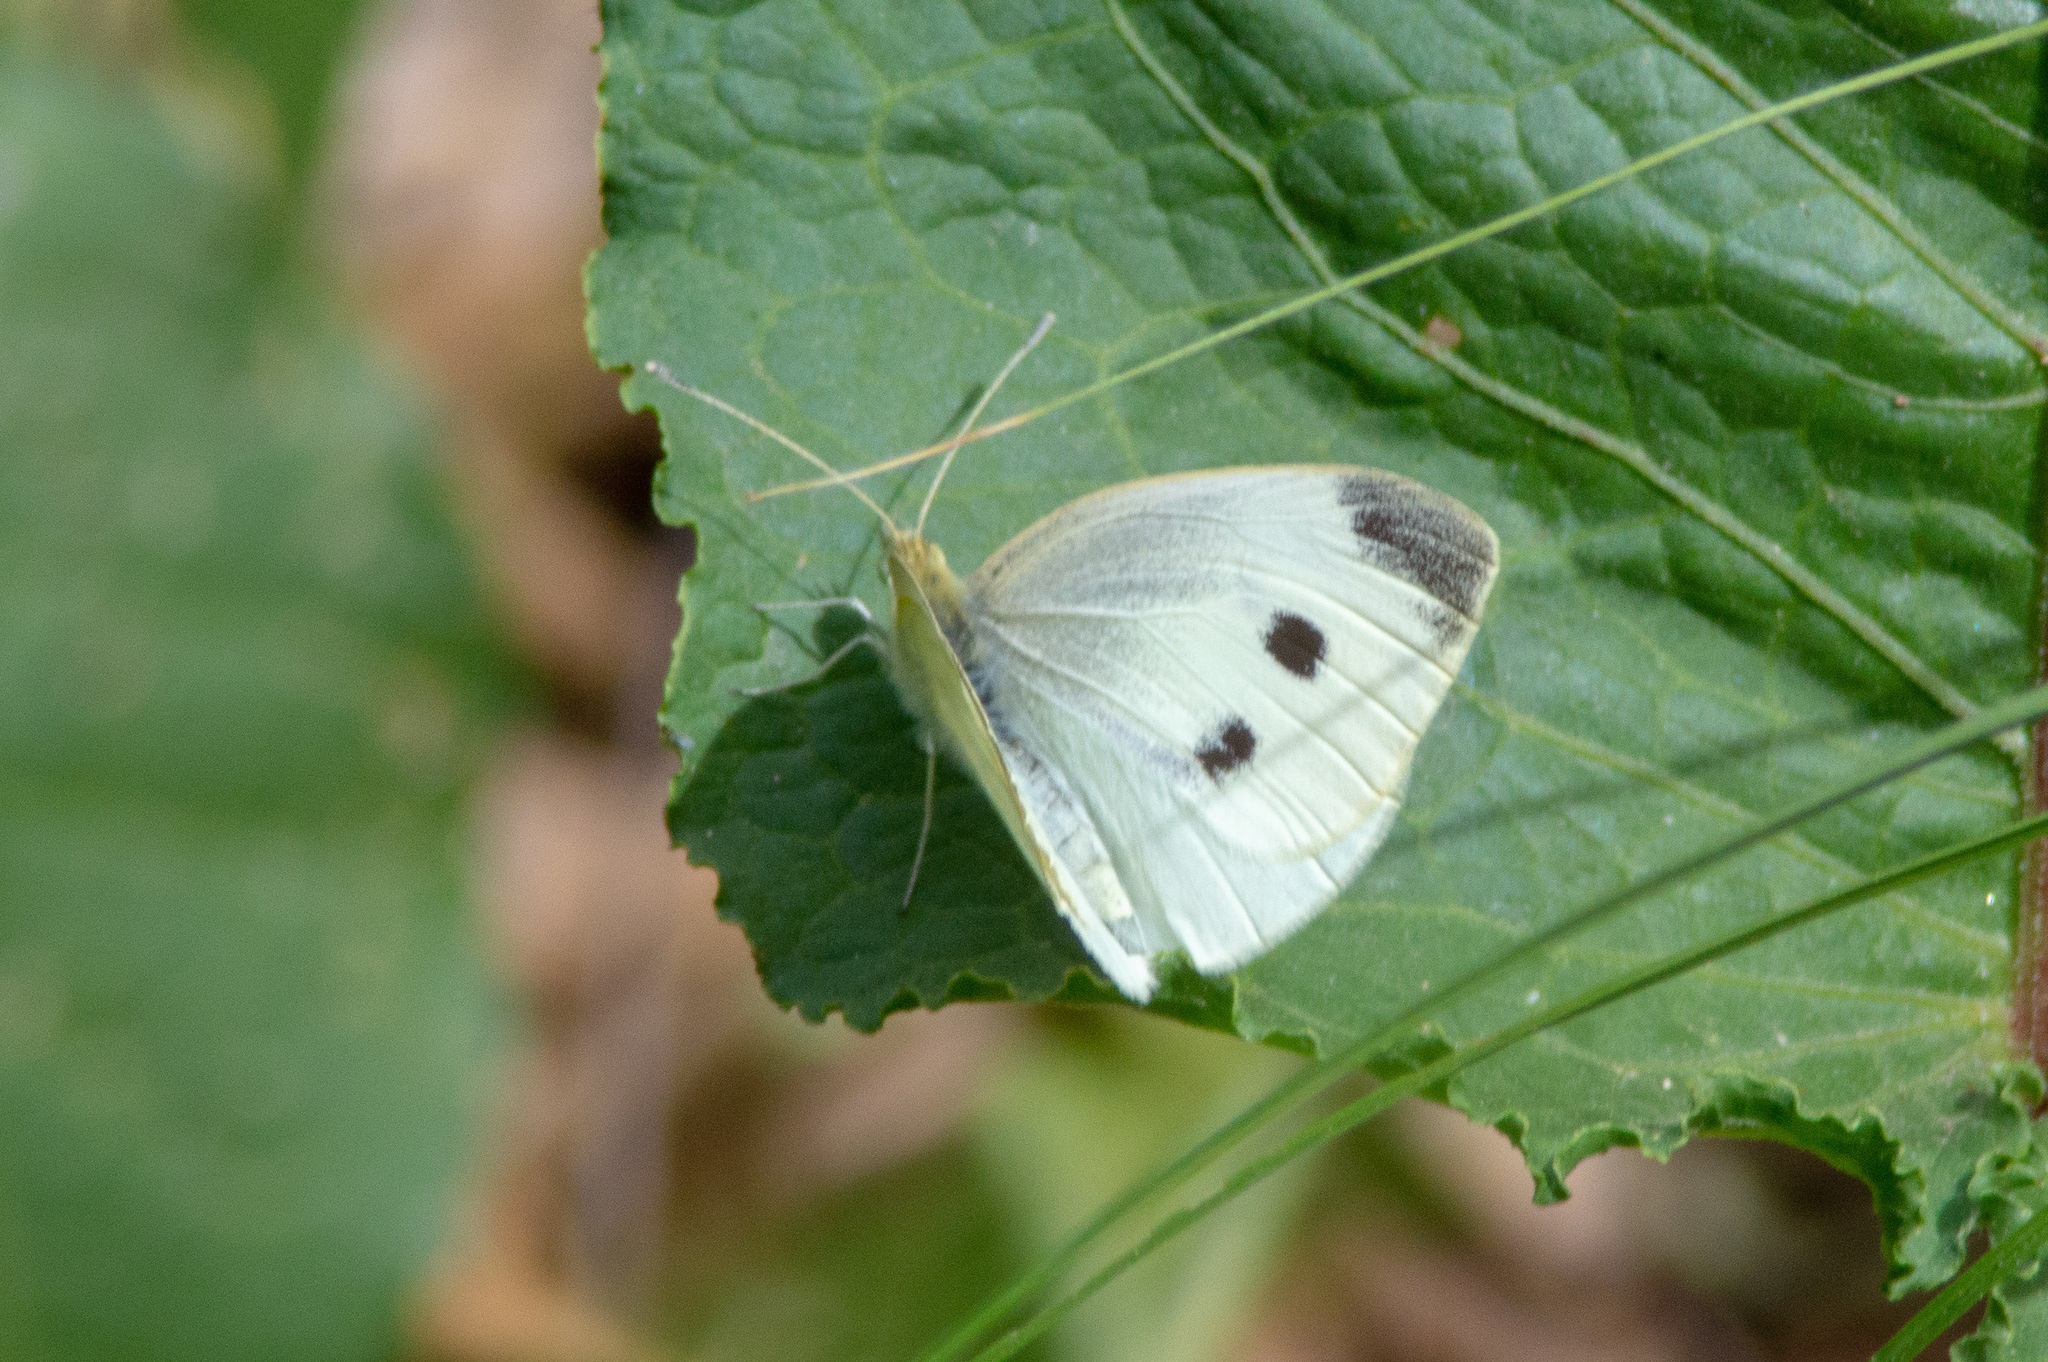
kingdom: Animalia
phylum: Arthropoda
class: Insecta
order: Lepidoptera
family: Pieridae
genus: Pieris
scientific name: Pieris rapae
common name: Small white
